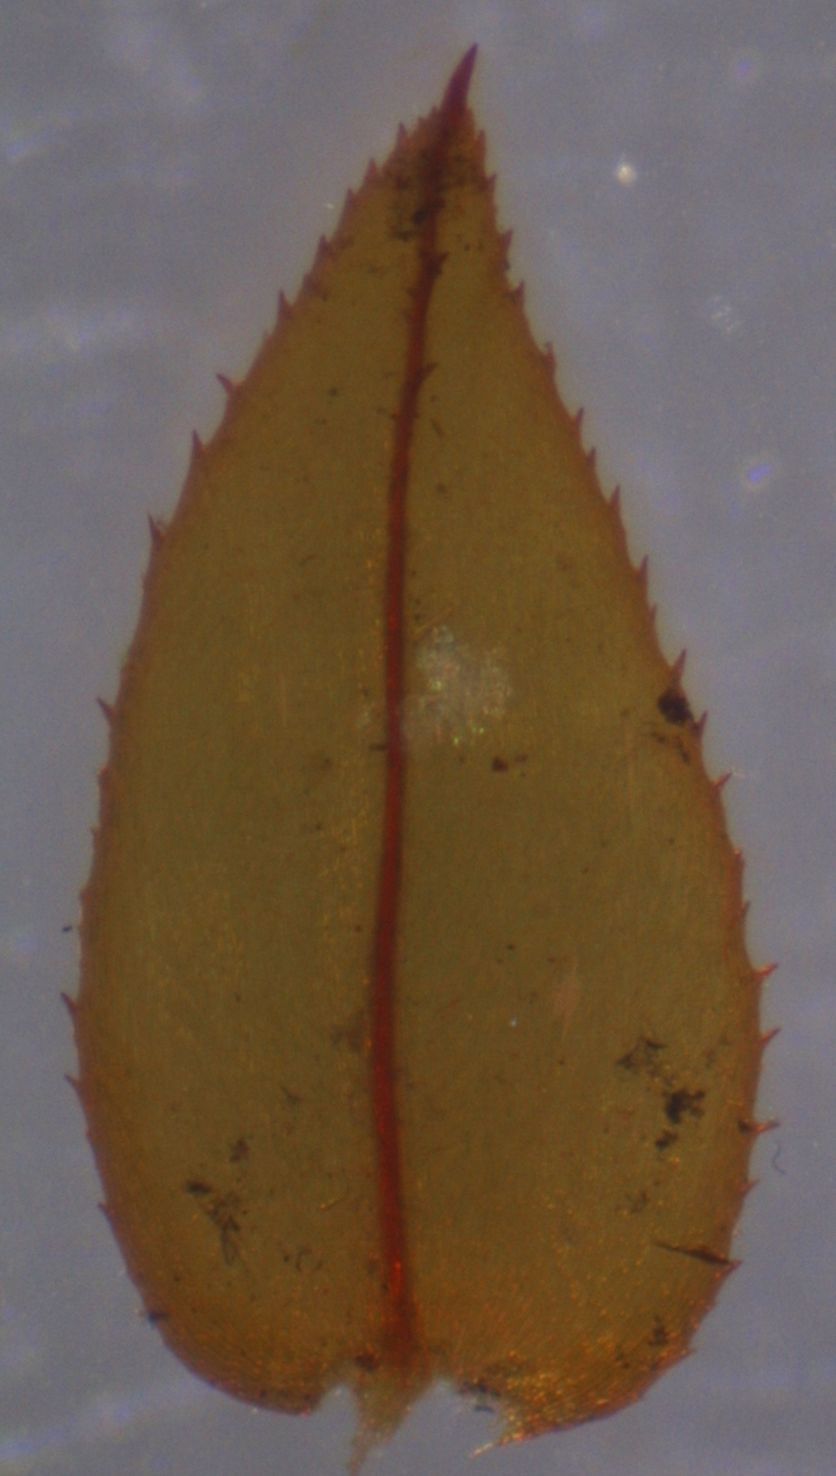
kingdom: Plantae
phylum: Bryophyta
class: Bryopsida
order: Hypopterygiales
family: Hypopterygiaceae
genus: Hypopterygium
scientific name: Hypopterygium tamarisci
